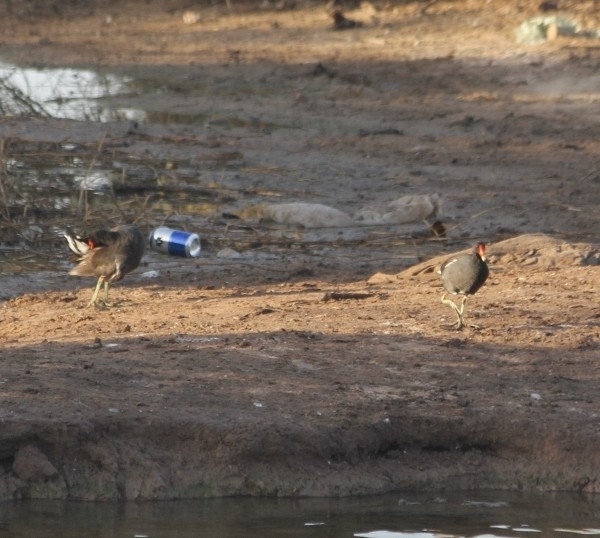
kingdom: Animalia
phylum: Chordata
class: Aves
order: Gruiformes
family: Rallidae
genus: Gallinula
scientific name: Gallinula chloropus
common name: Common moorhen
